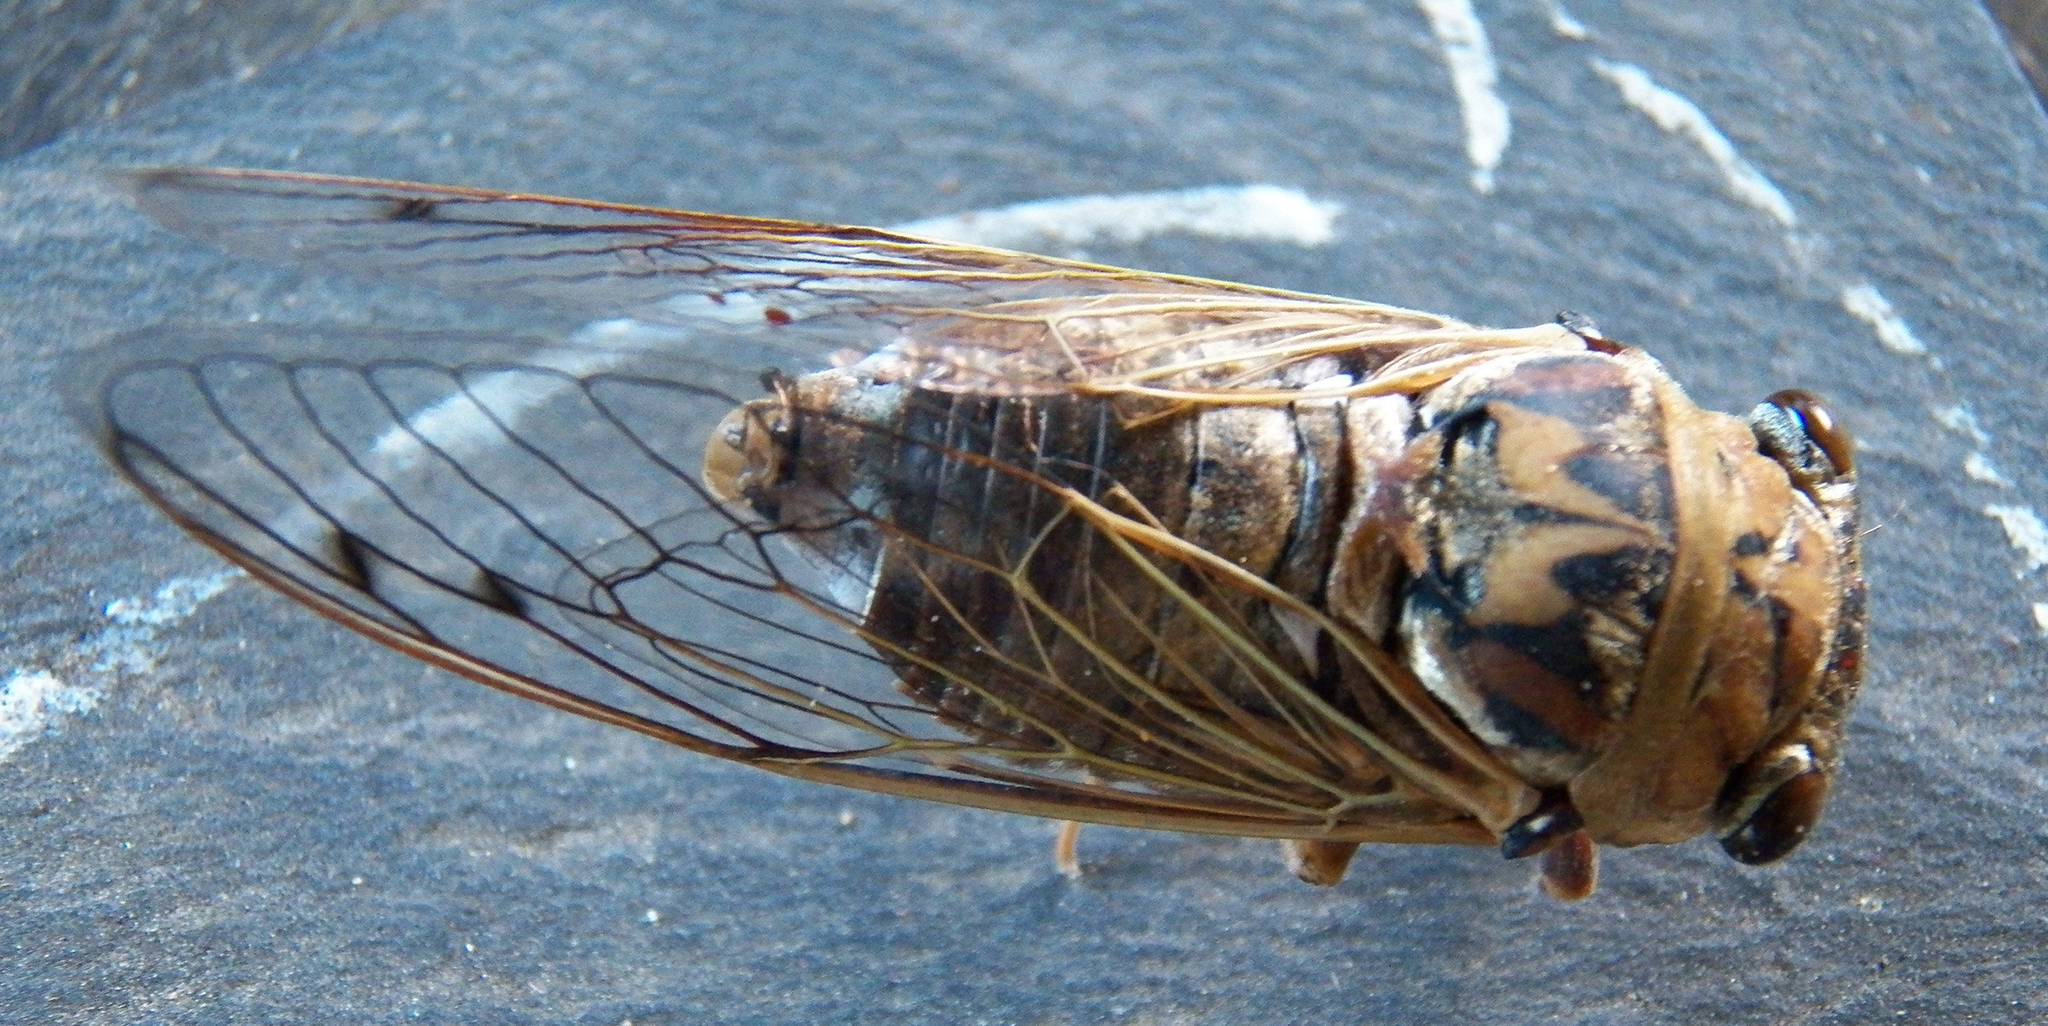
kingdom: Animalia
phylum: Arthropoda
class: Insecta
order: Hemiptera
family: Cicadidae
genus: Megatibicen
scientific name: Megatibicen resh
